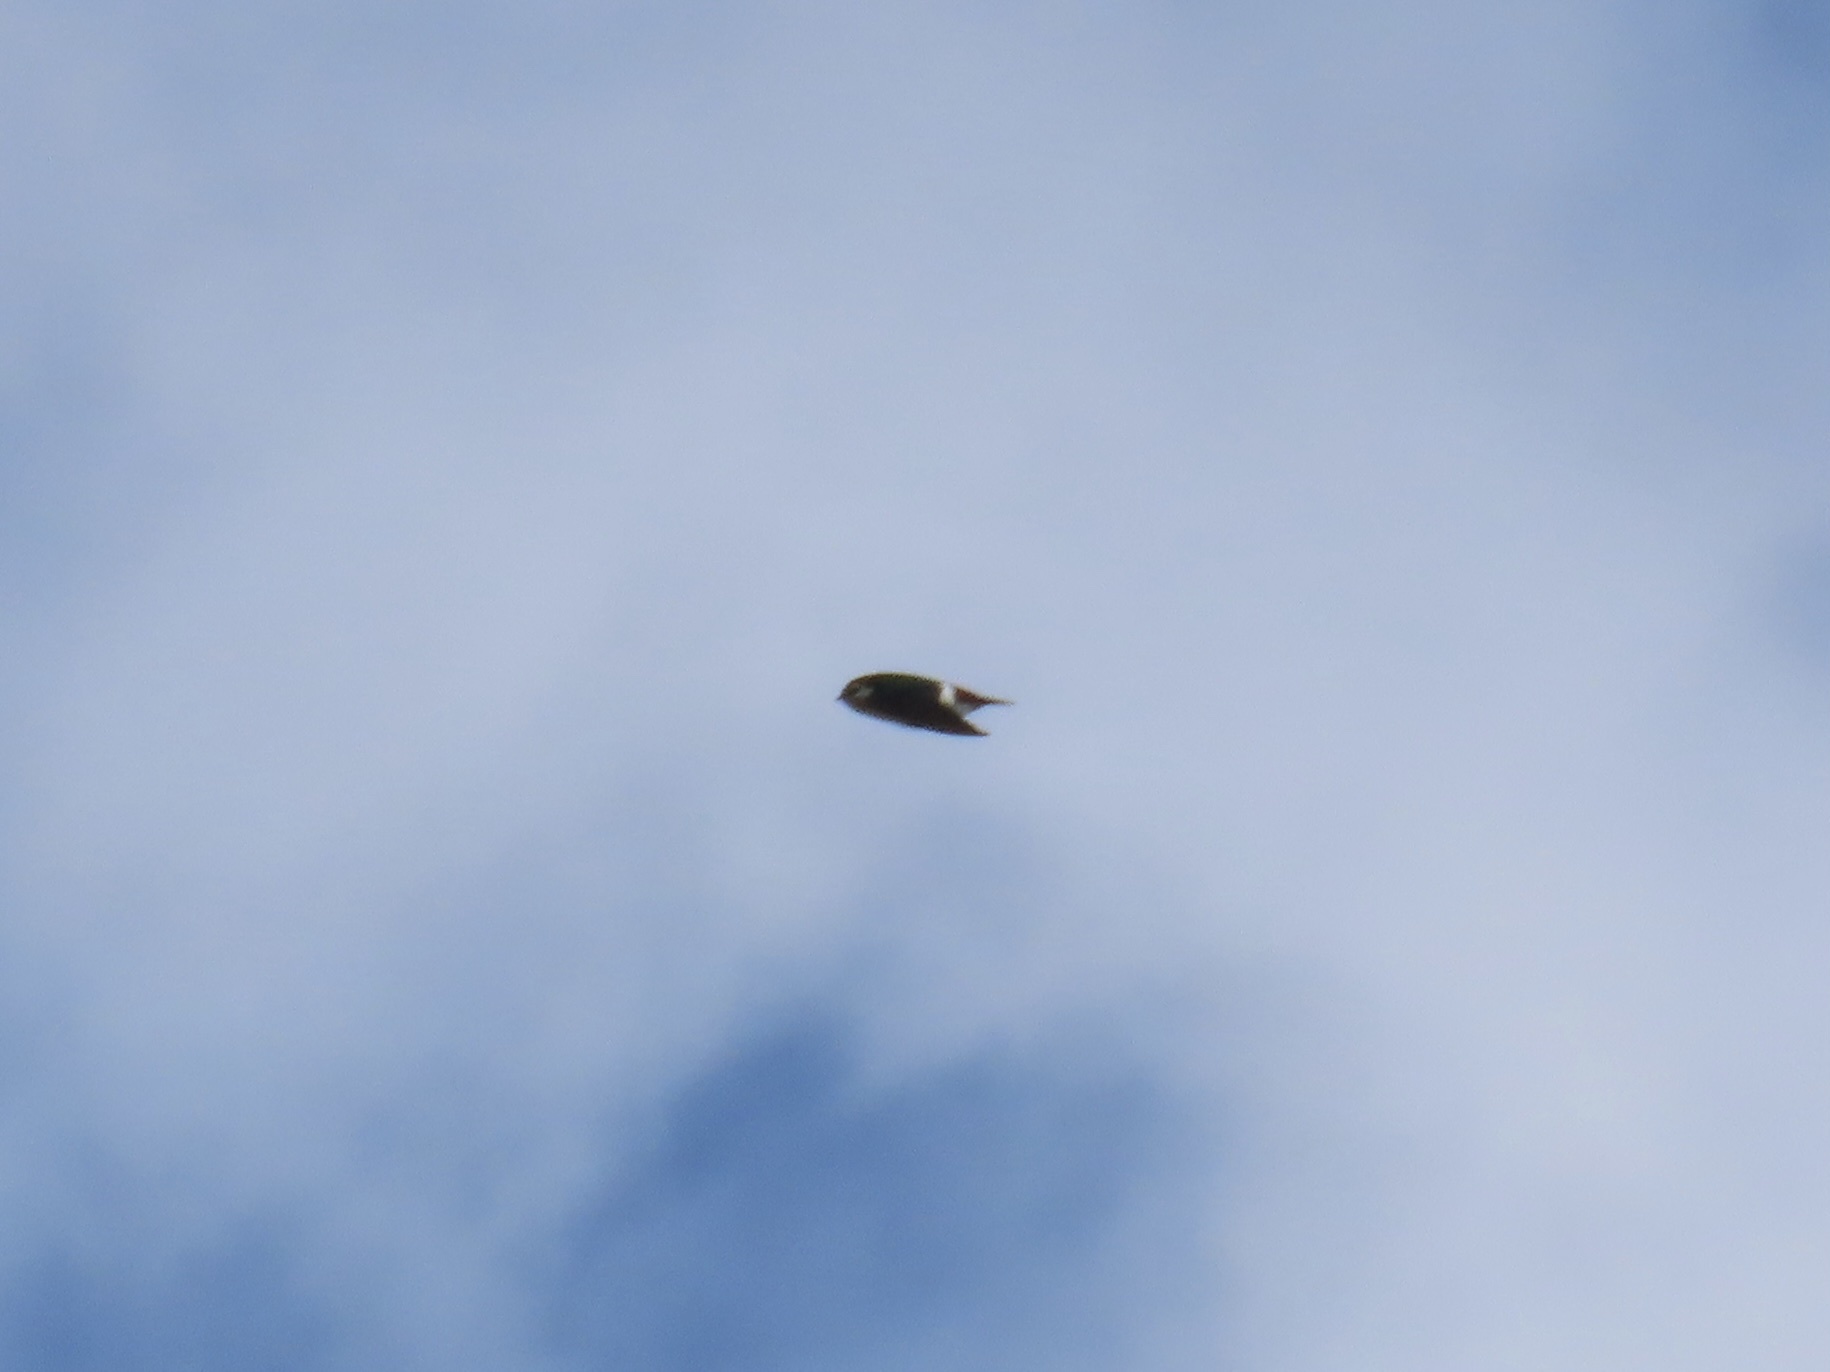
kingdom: Animalia
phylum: Chordata
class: Aves
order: Passeriformes
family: Hirundinidae
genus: Tachycineta
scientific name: Tachycineta thalassina
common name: Violet-green swallow
